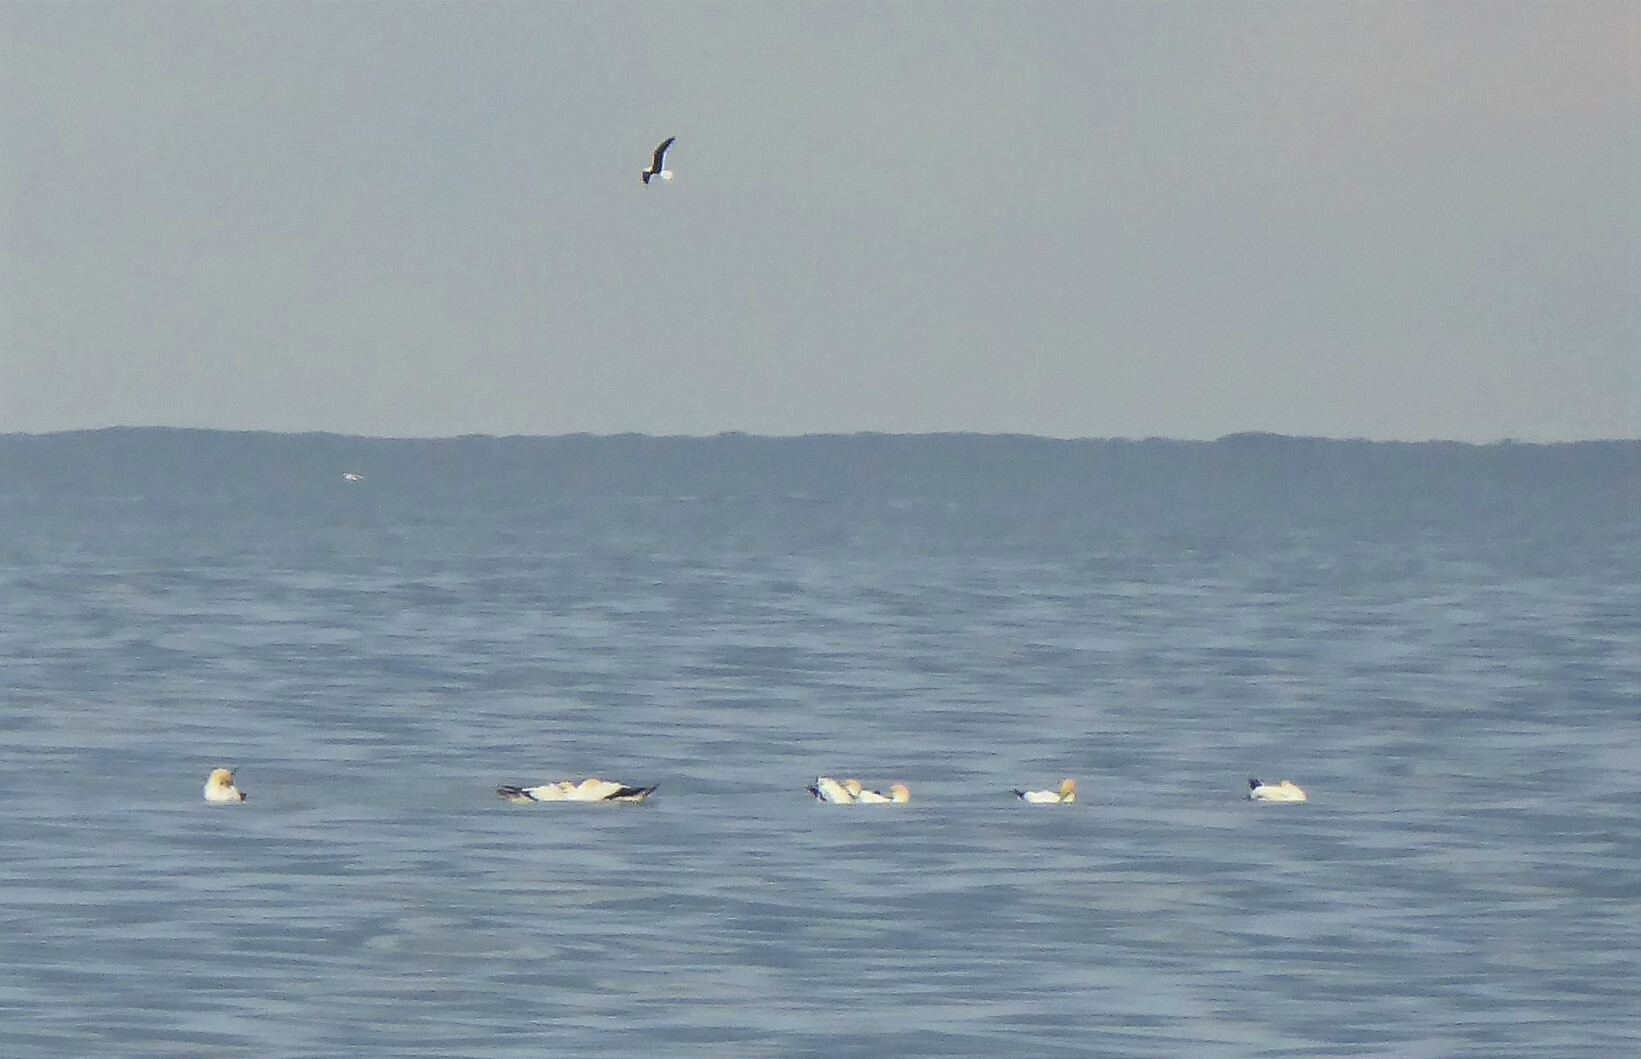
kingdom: Animalia
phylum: Chordata
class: Aves
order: Suliformes
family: Sulidae
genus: Morus
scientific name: Morus serrator
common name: Australasian gannet
